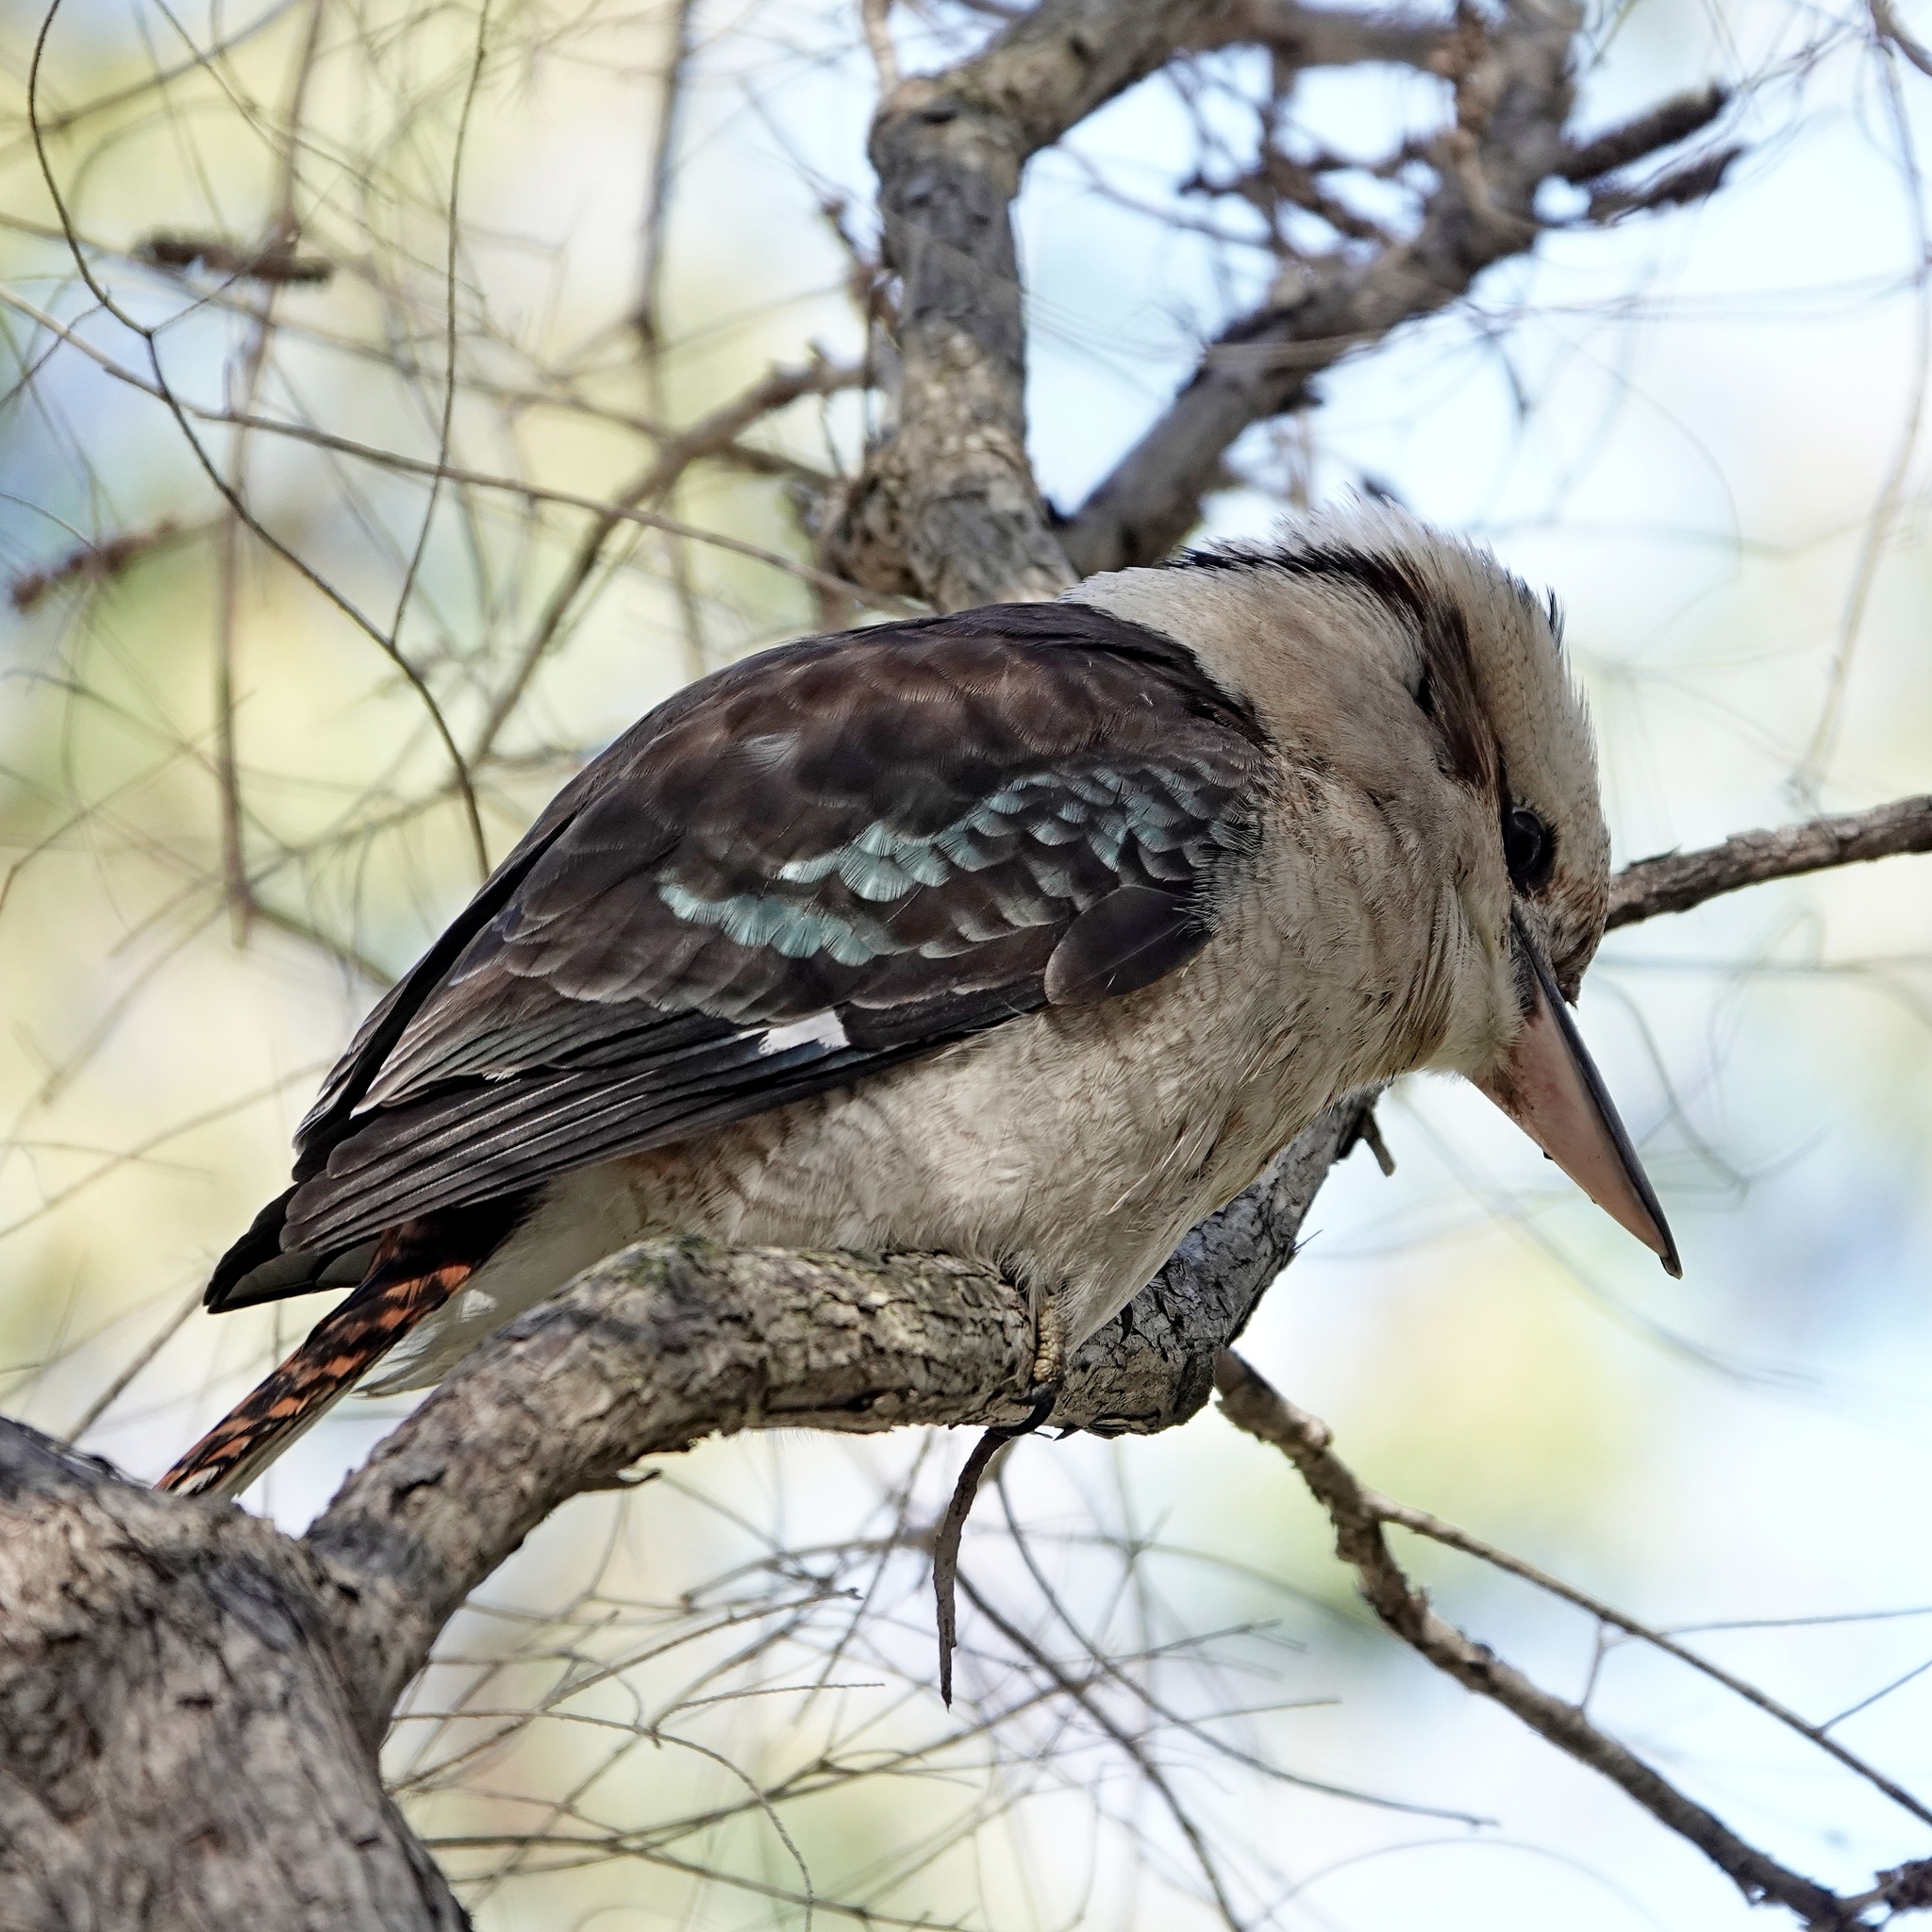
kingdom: Animalia
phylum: Chordata
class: Aves
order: Coraciiformes
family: Alcedinidae
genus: Dacelo
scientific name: Dacelo novaeguineae
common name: Laughing kookaburra
